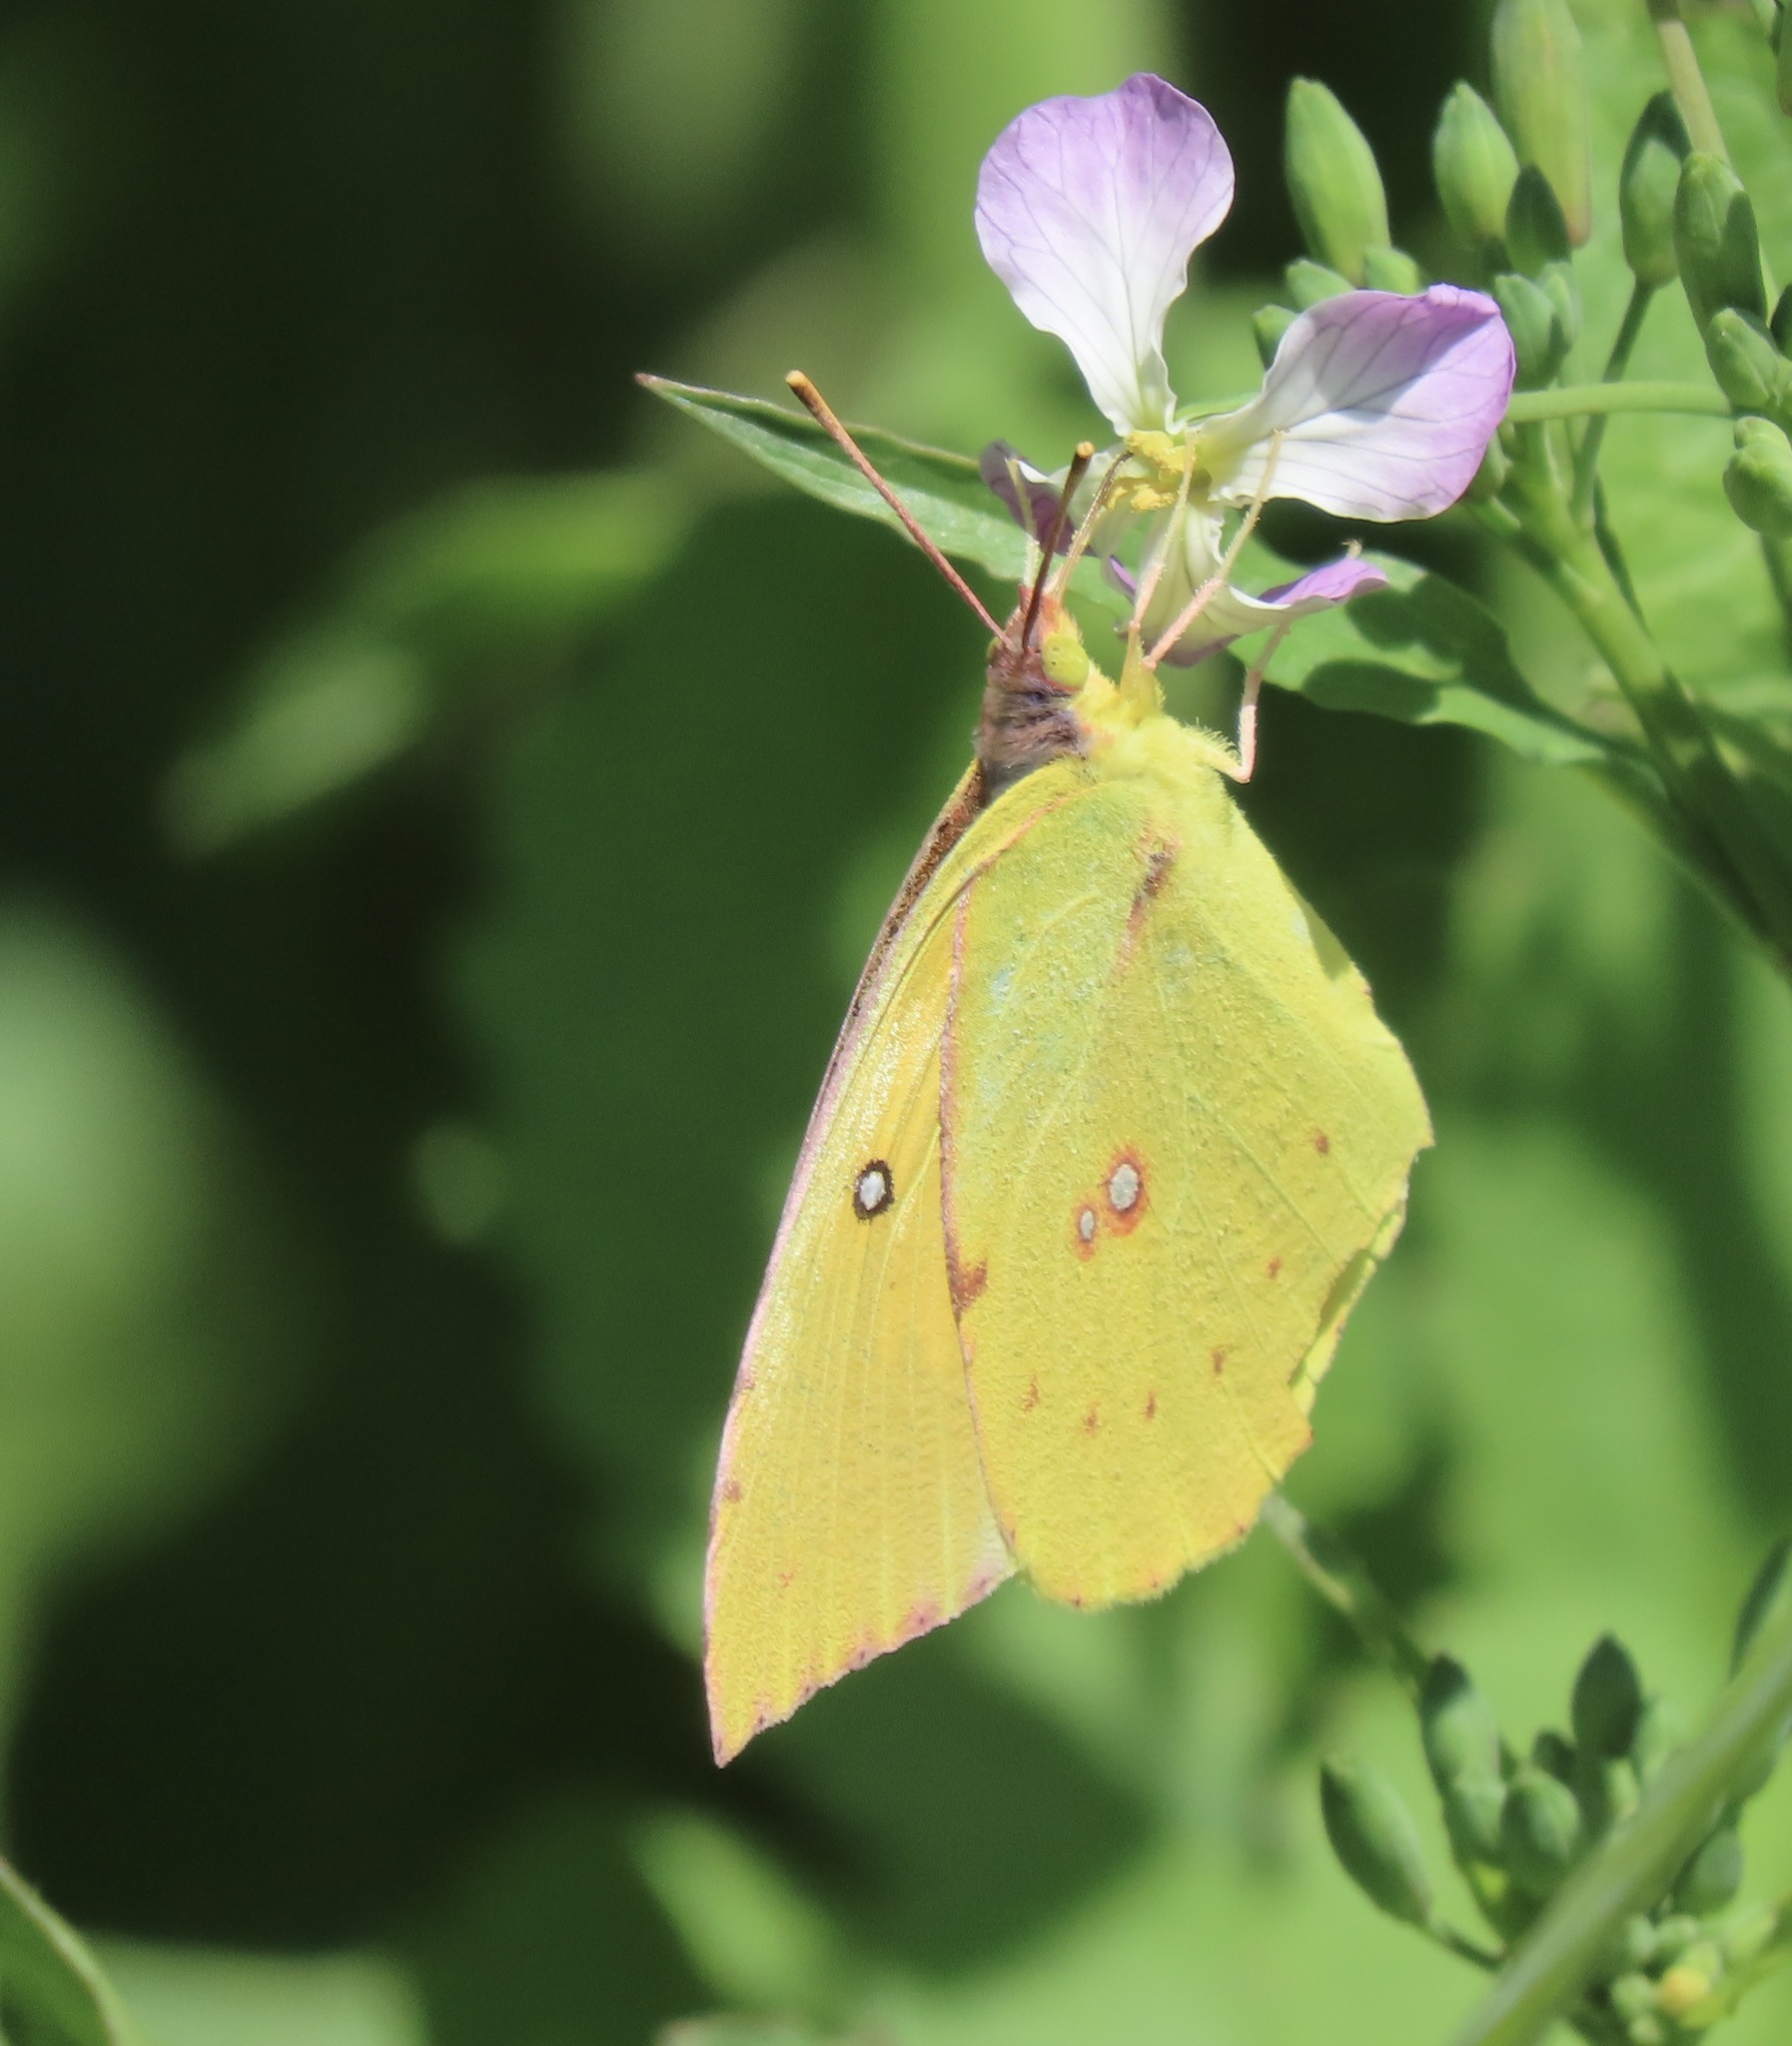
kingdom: Animalia
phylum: Arthropoda
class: Insecta
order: Lepidoptera
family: Pieridae
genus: Zerene
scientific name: Zerene eurydice
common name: California dogface
